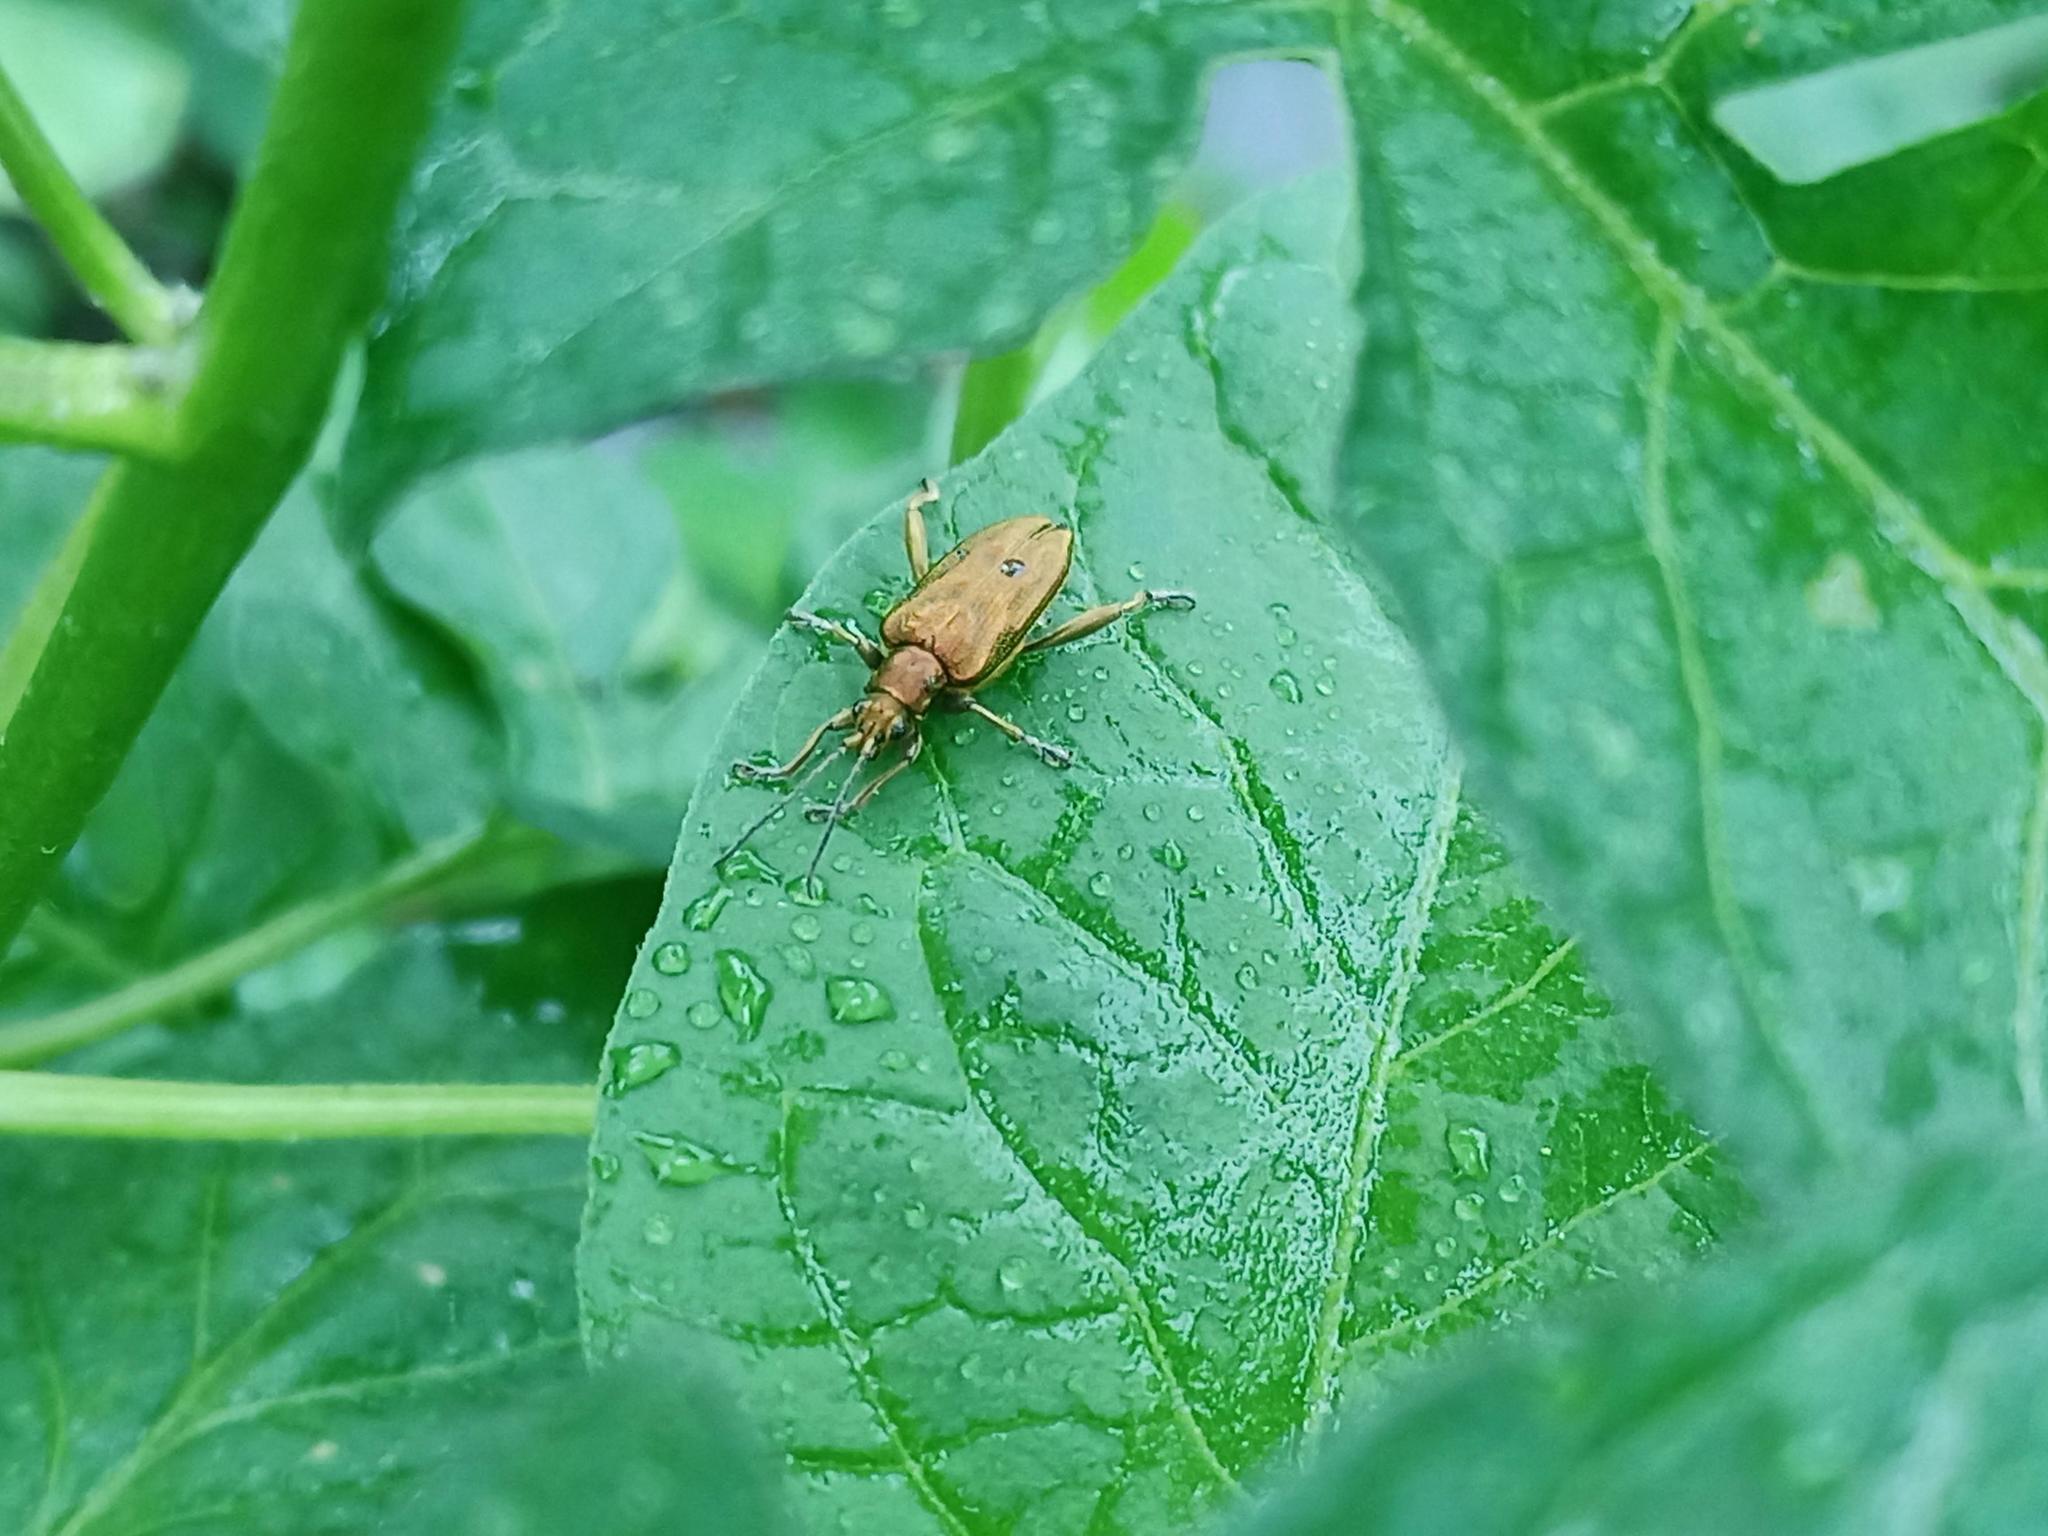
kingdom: Animalia
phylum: Arthropoda
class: Insecta
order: Coleoptera
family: Chrysomelidae
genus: Donacia
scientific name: Donacia bicolora
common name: Reed beetle
